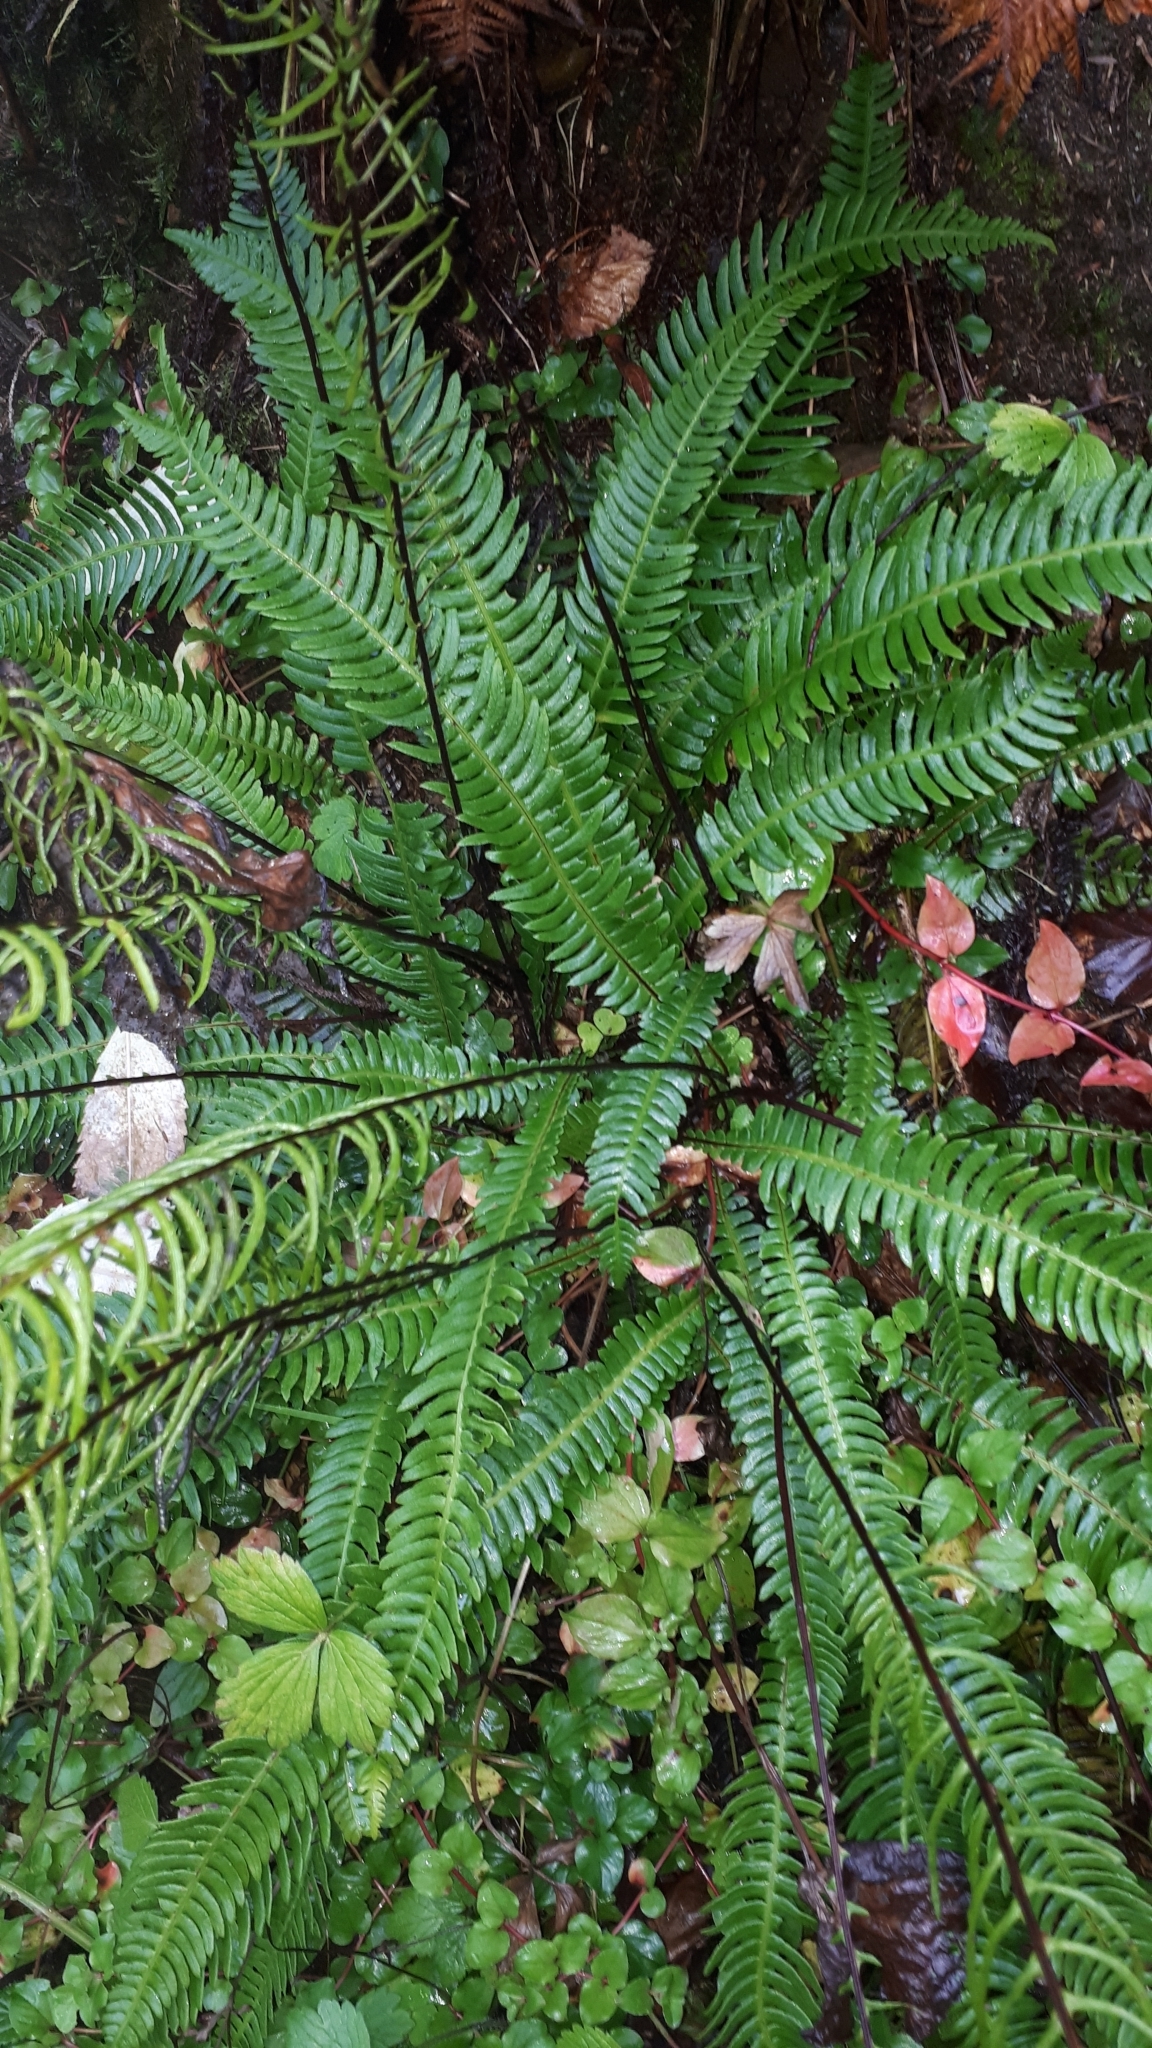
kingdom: Plantae
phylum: Tracheophyta
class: Polypodiopsida
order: Polypodiales
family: Blechnaceae
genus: Struthiopteris
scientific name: Struthiopteris spicant
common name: Deer fern
